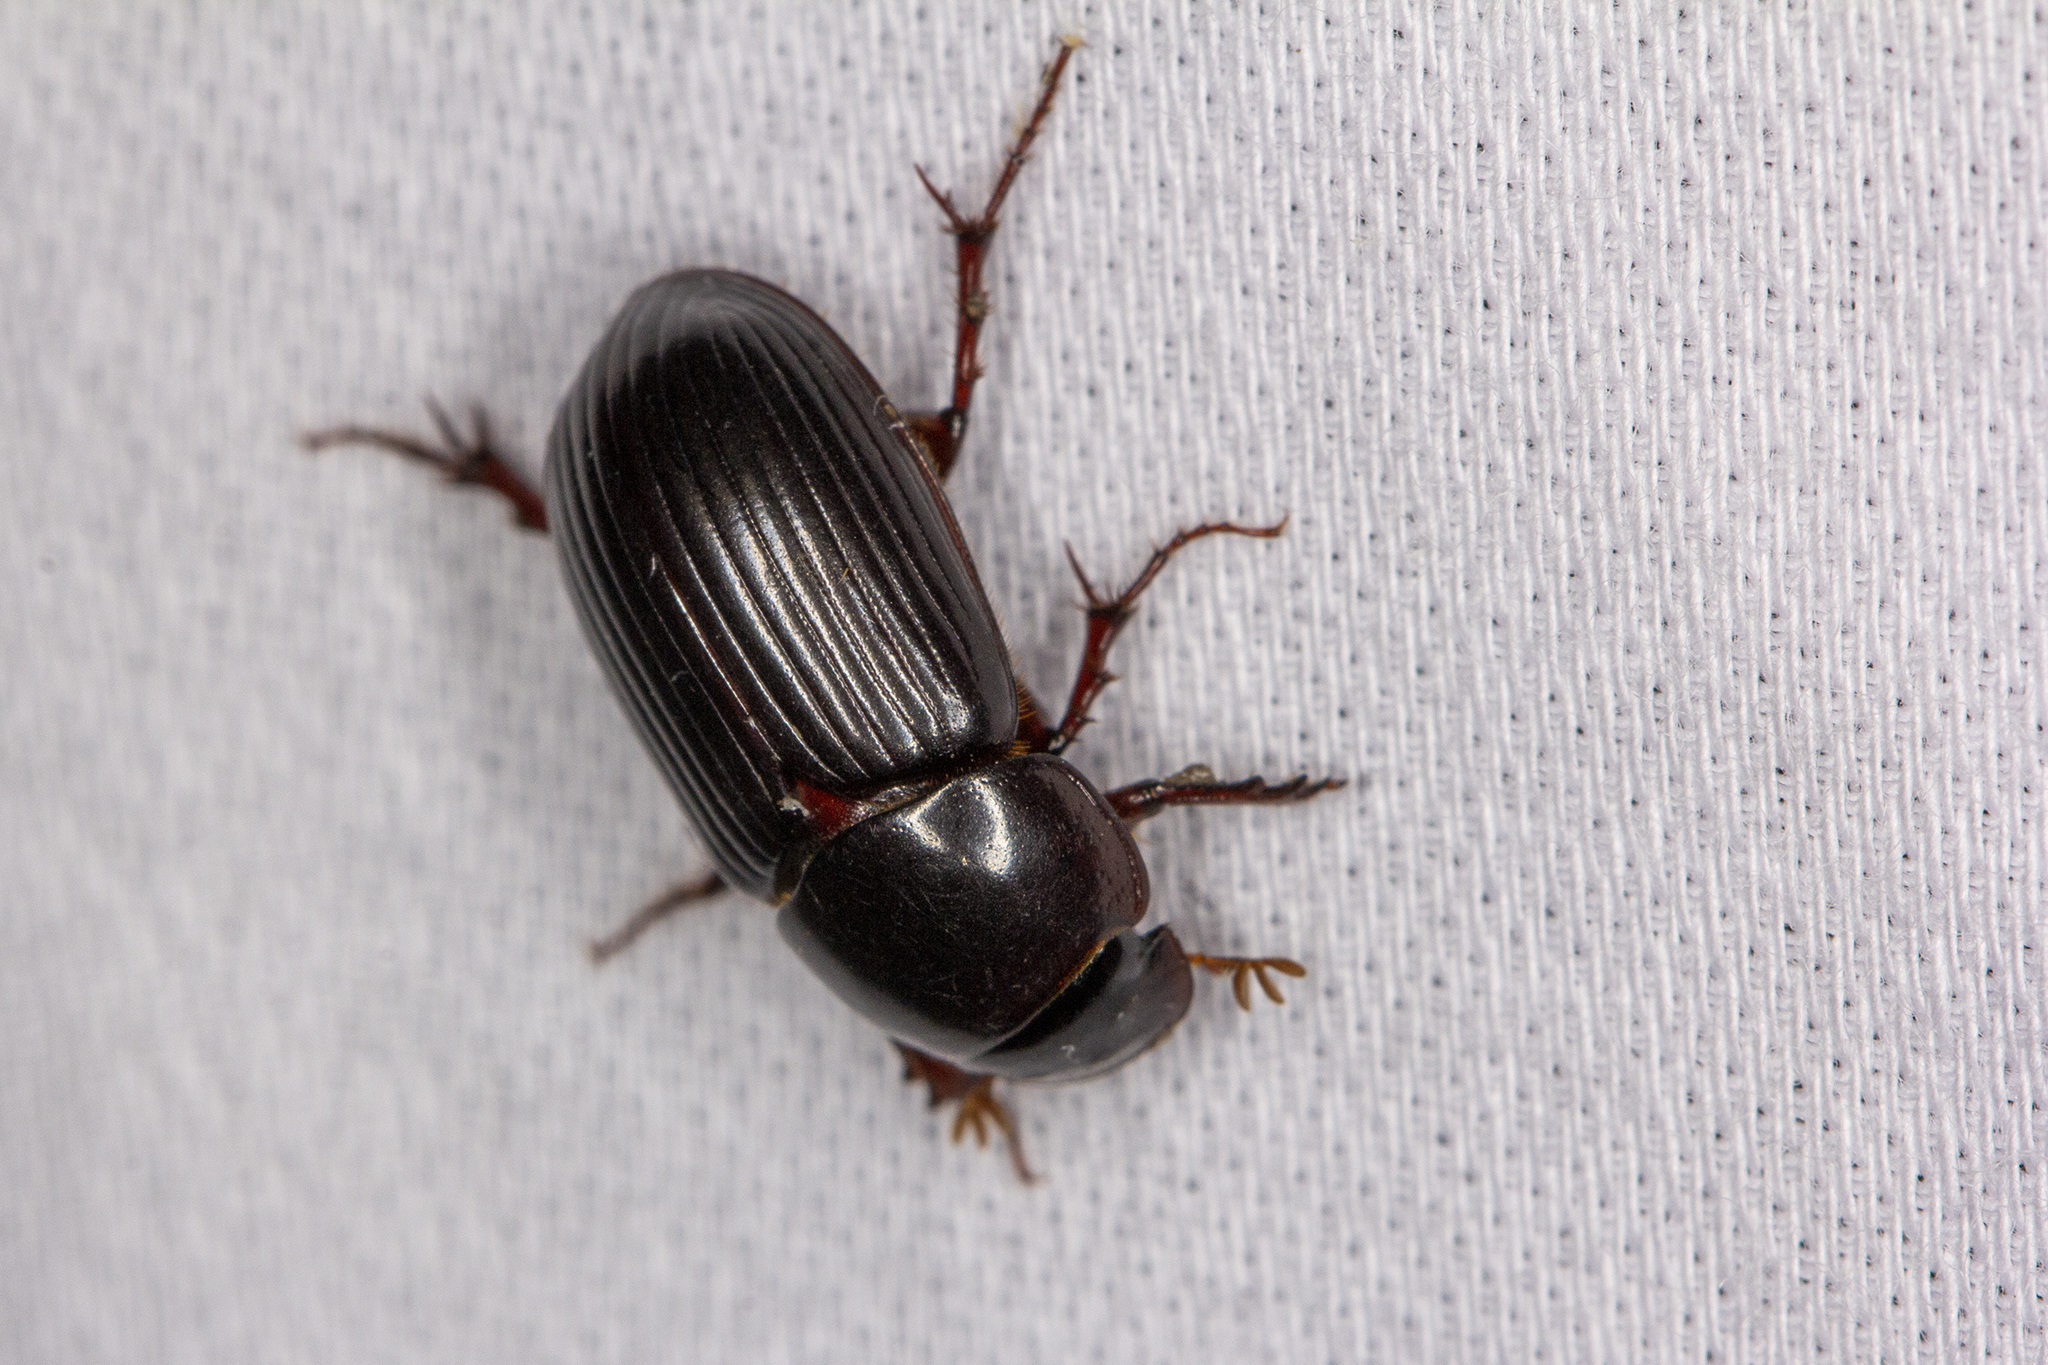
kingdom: Animalia
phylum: Arthropoda
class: Insecta
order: Coleoptera
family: Scarabaeidae
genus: Acrossus
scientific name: Acrossus rufipes
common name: Night-flying dung beetle
